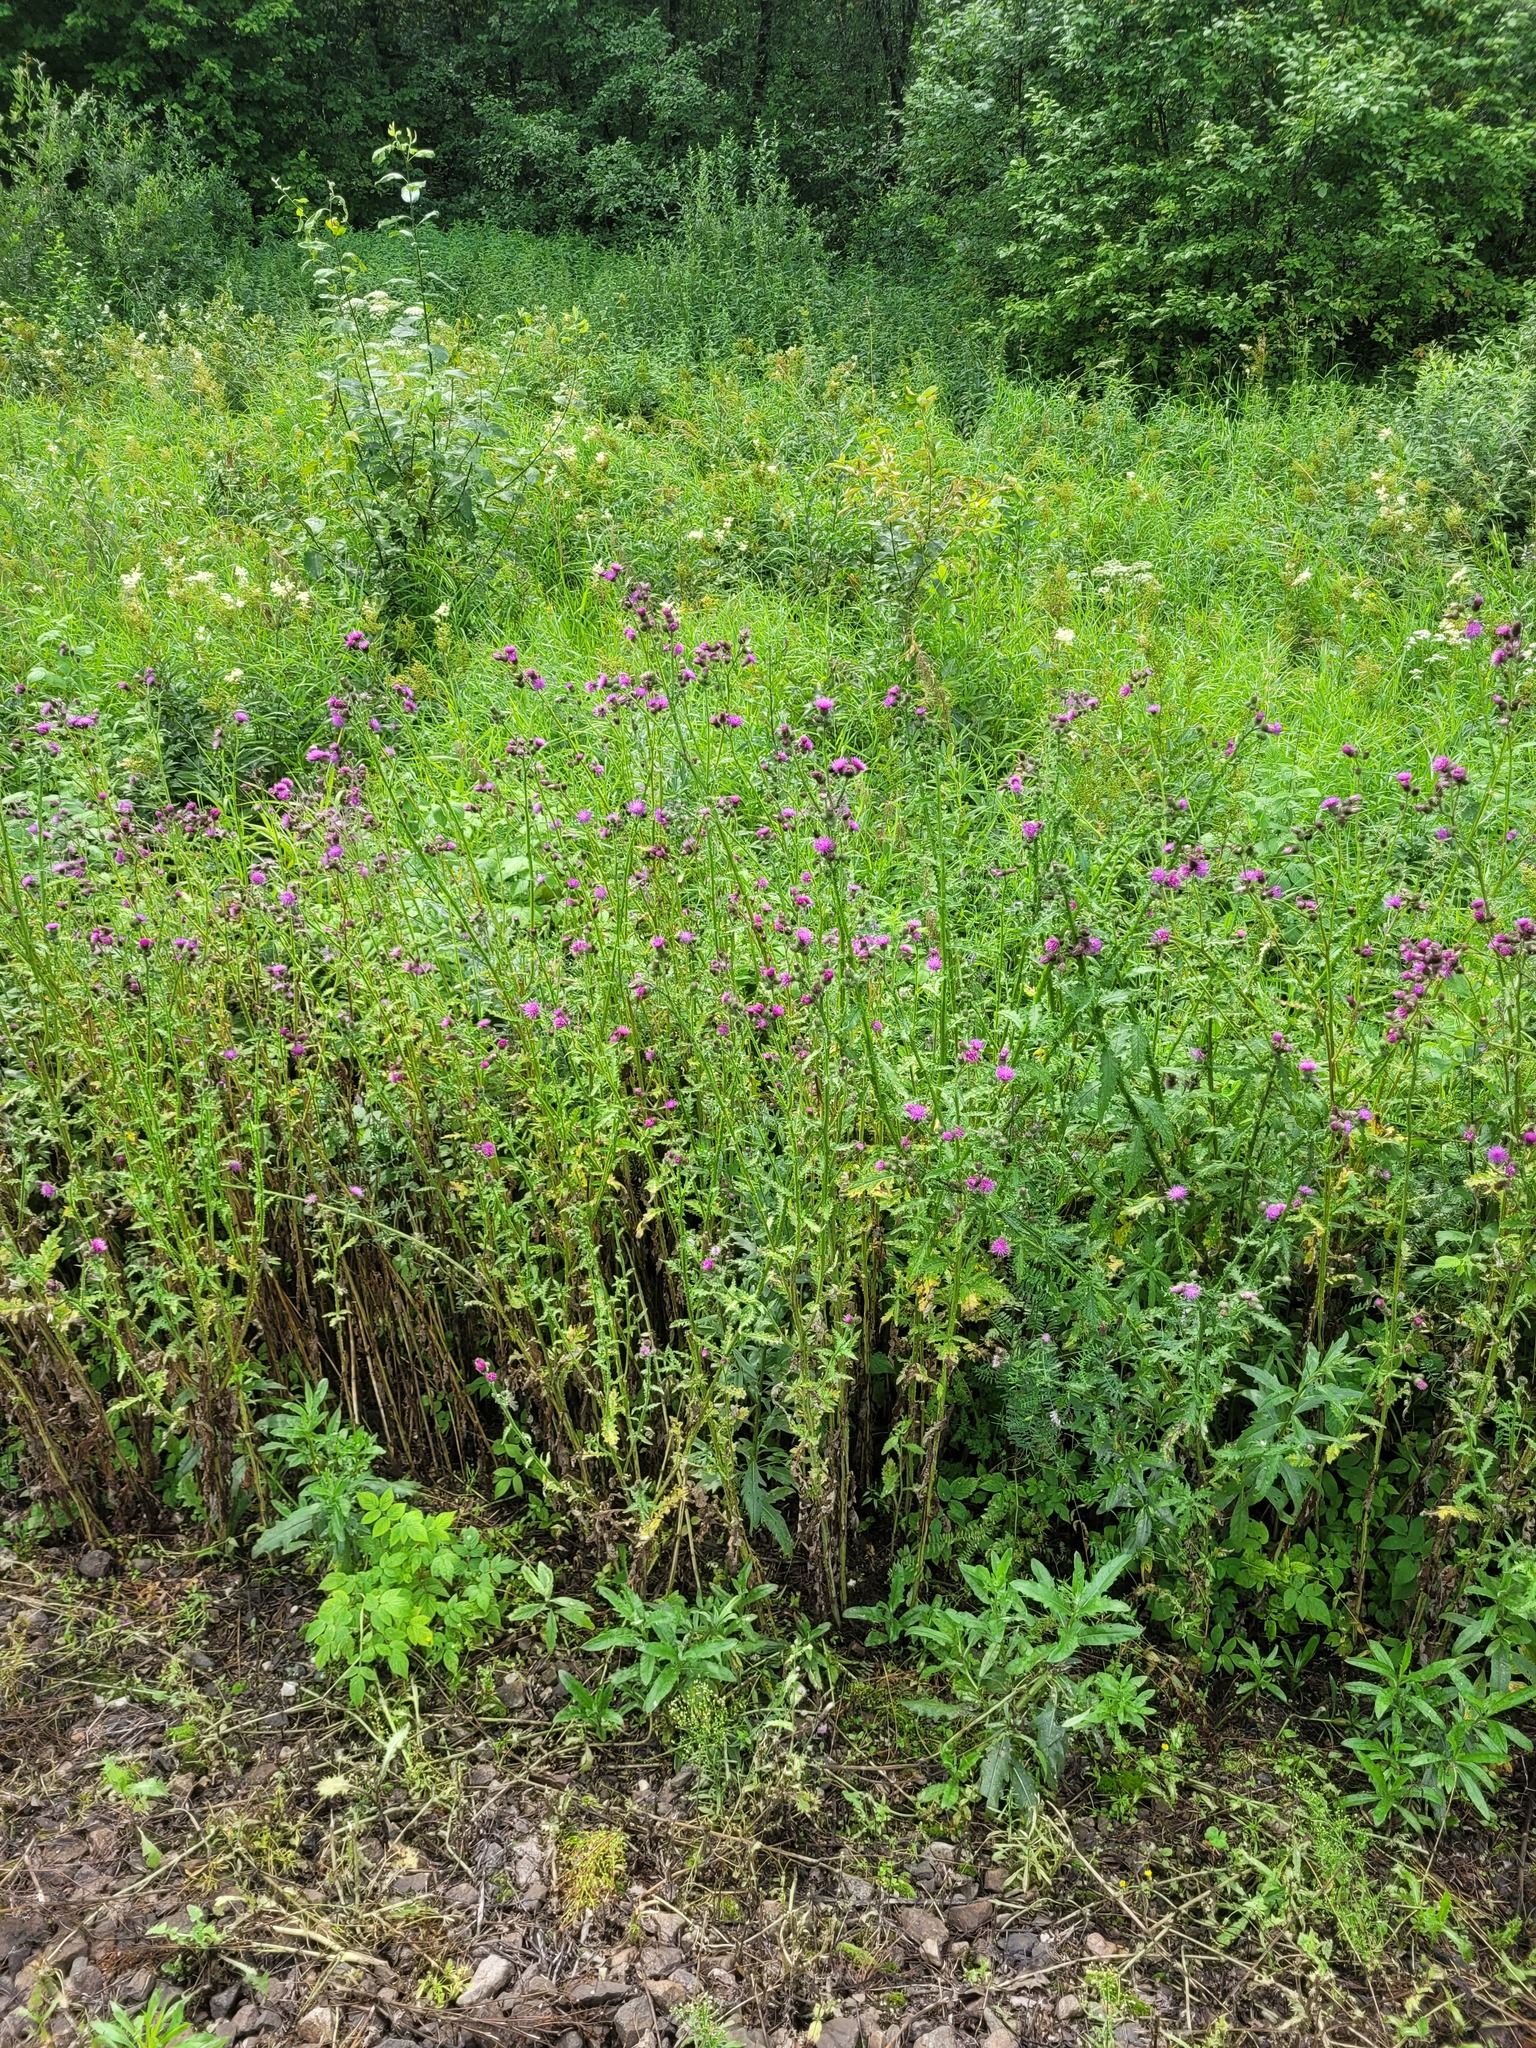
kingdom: Plantae
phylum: Tracheophyta
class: Magnoliopsida
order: Asterales
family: Asteraceae
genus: Carduus
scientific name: Carduus crispus
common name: Welted thistle
